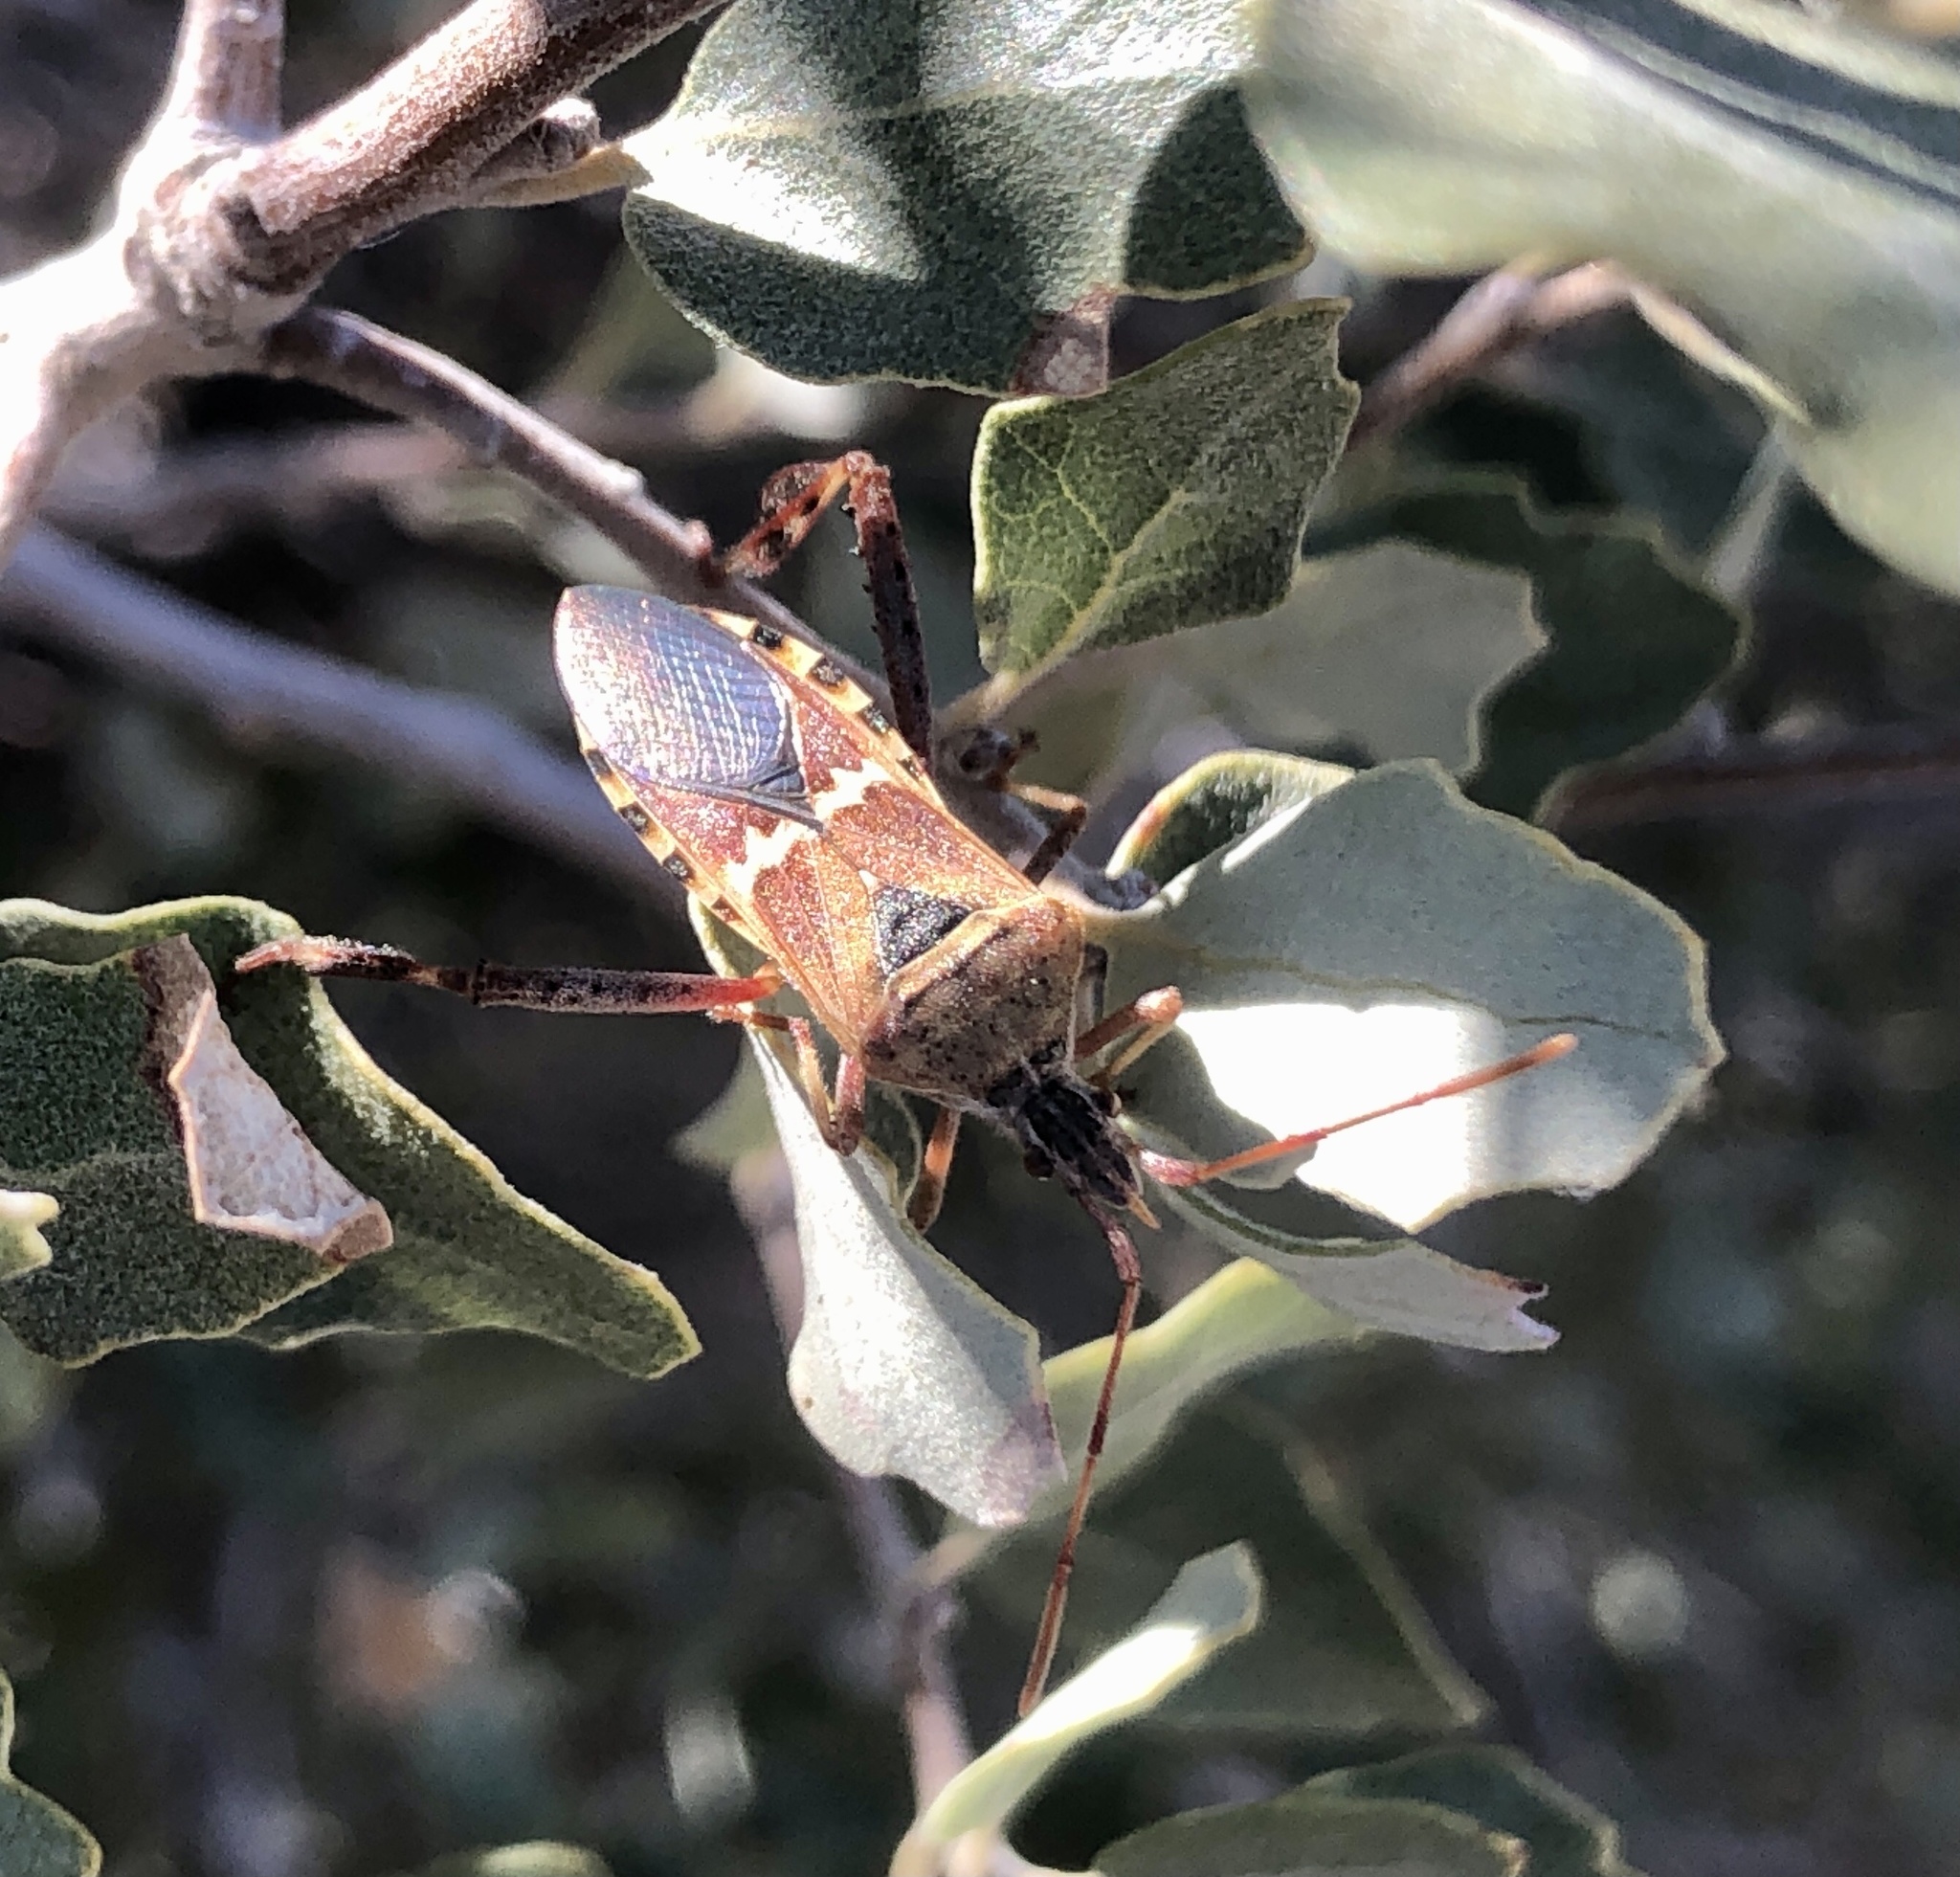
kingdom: Animalia
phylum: Arthropoda
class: Insecta
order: Hemiptera
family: Coreidae
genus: Leptoglossus
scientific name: Leptoglossus clypealis
